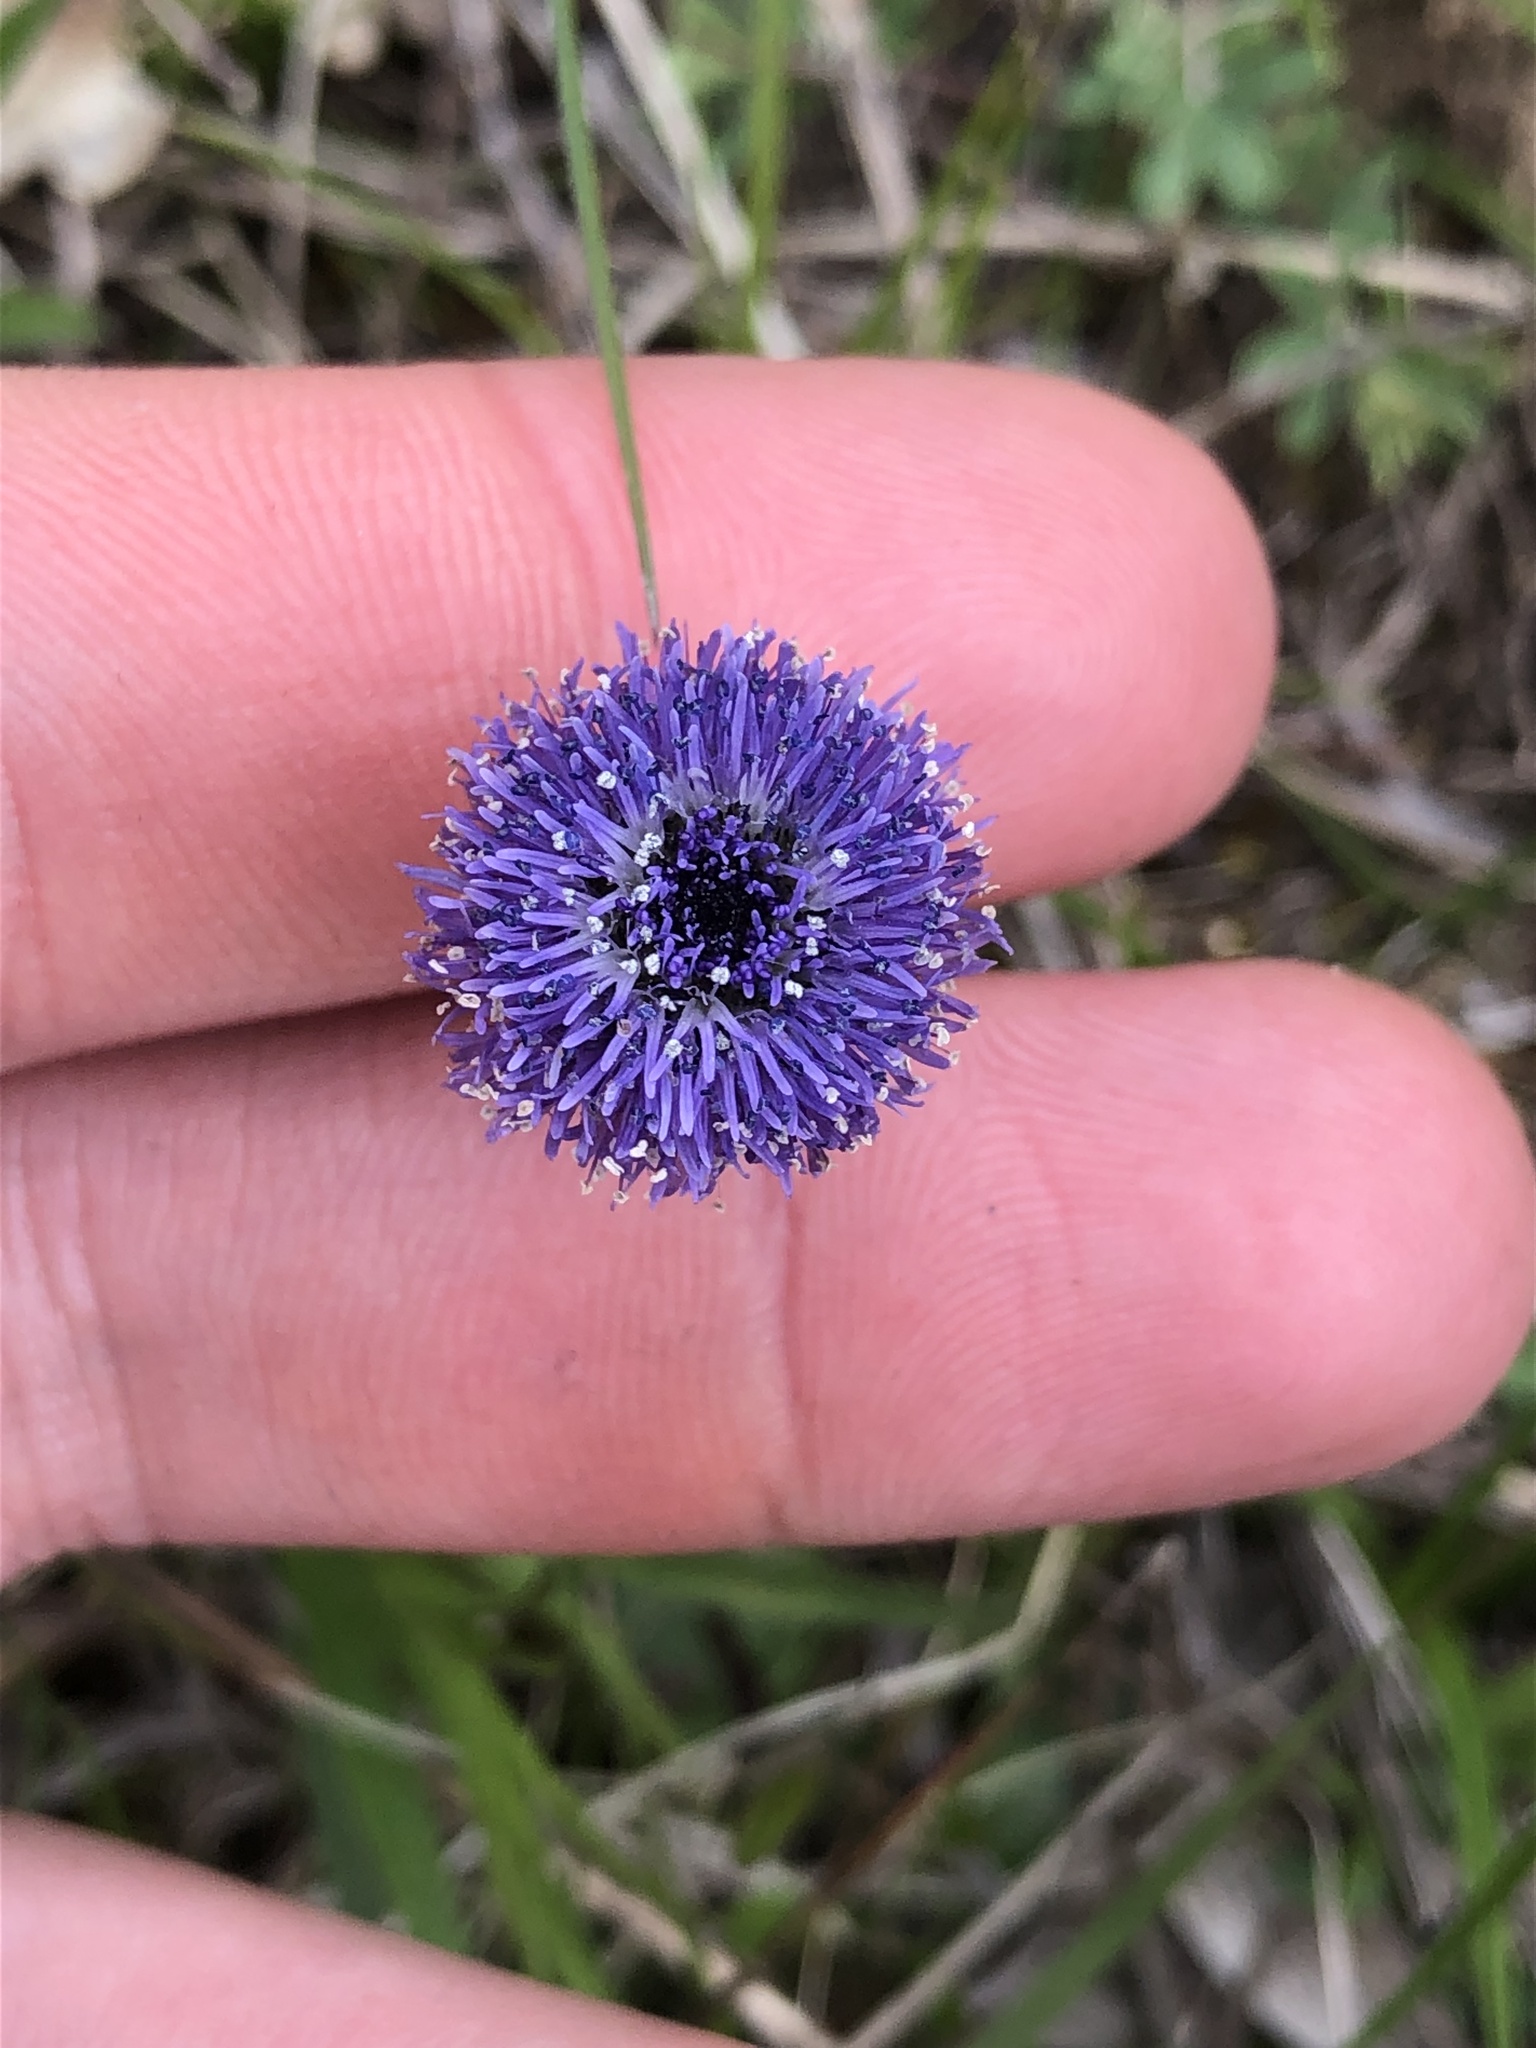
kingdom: Plantae
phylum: Tracheophyta
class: Magnoliopsida
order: Lamiales
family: Plantaginaceae
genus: Globularia
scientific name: Globularia bisnagarica
